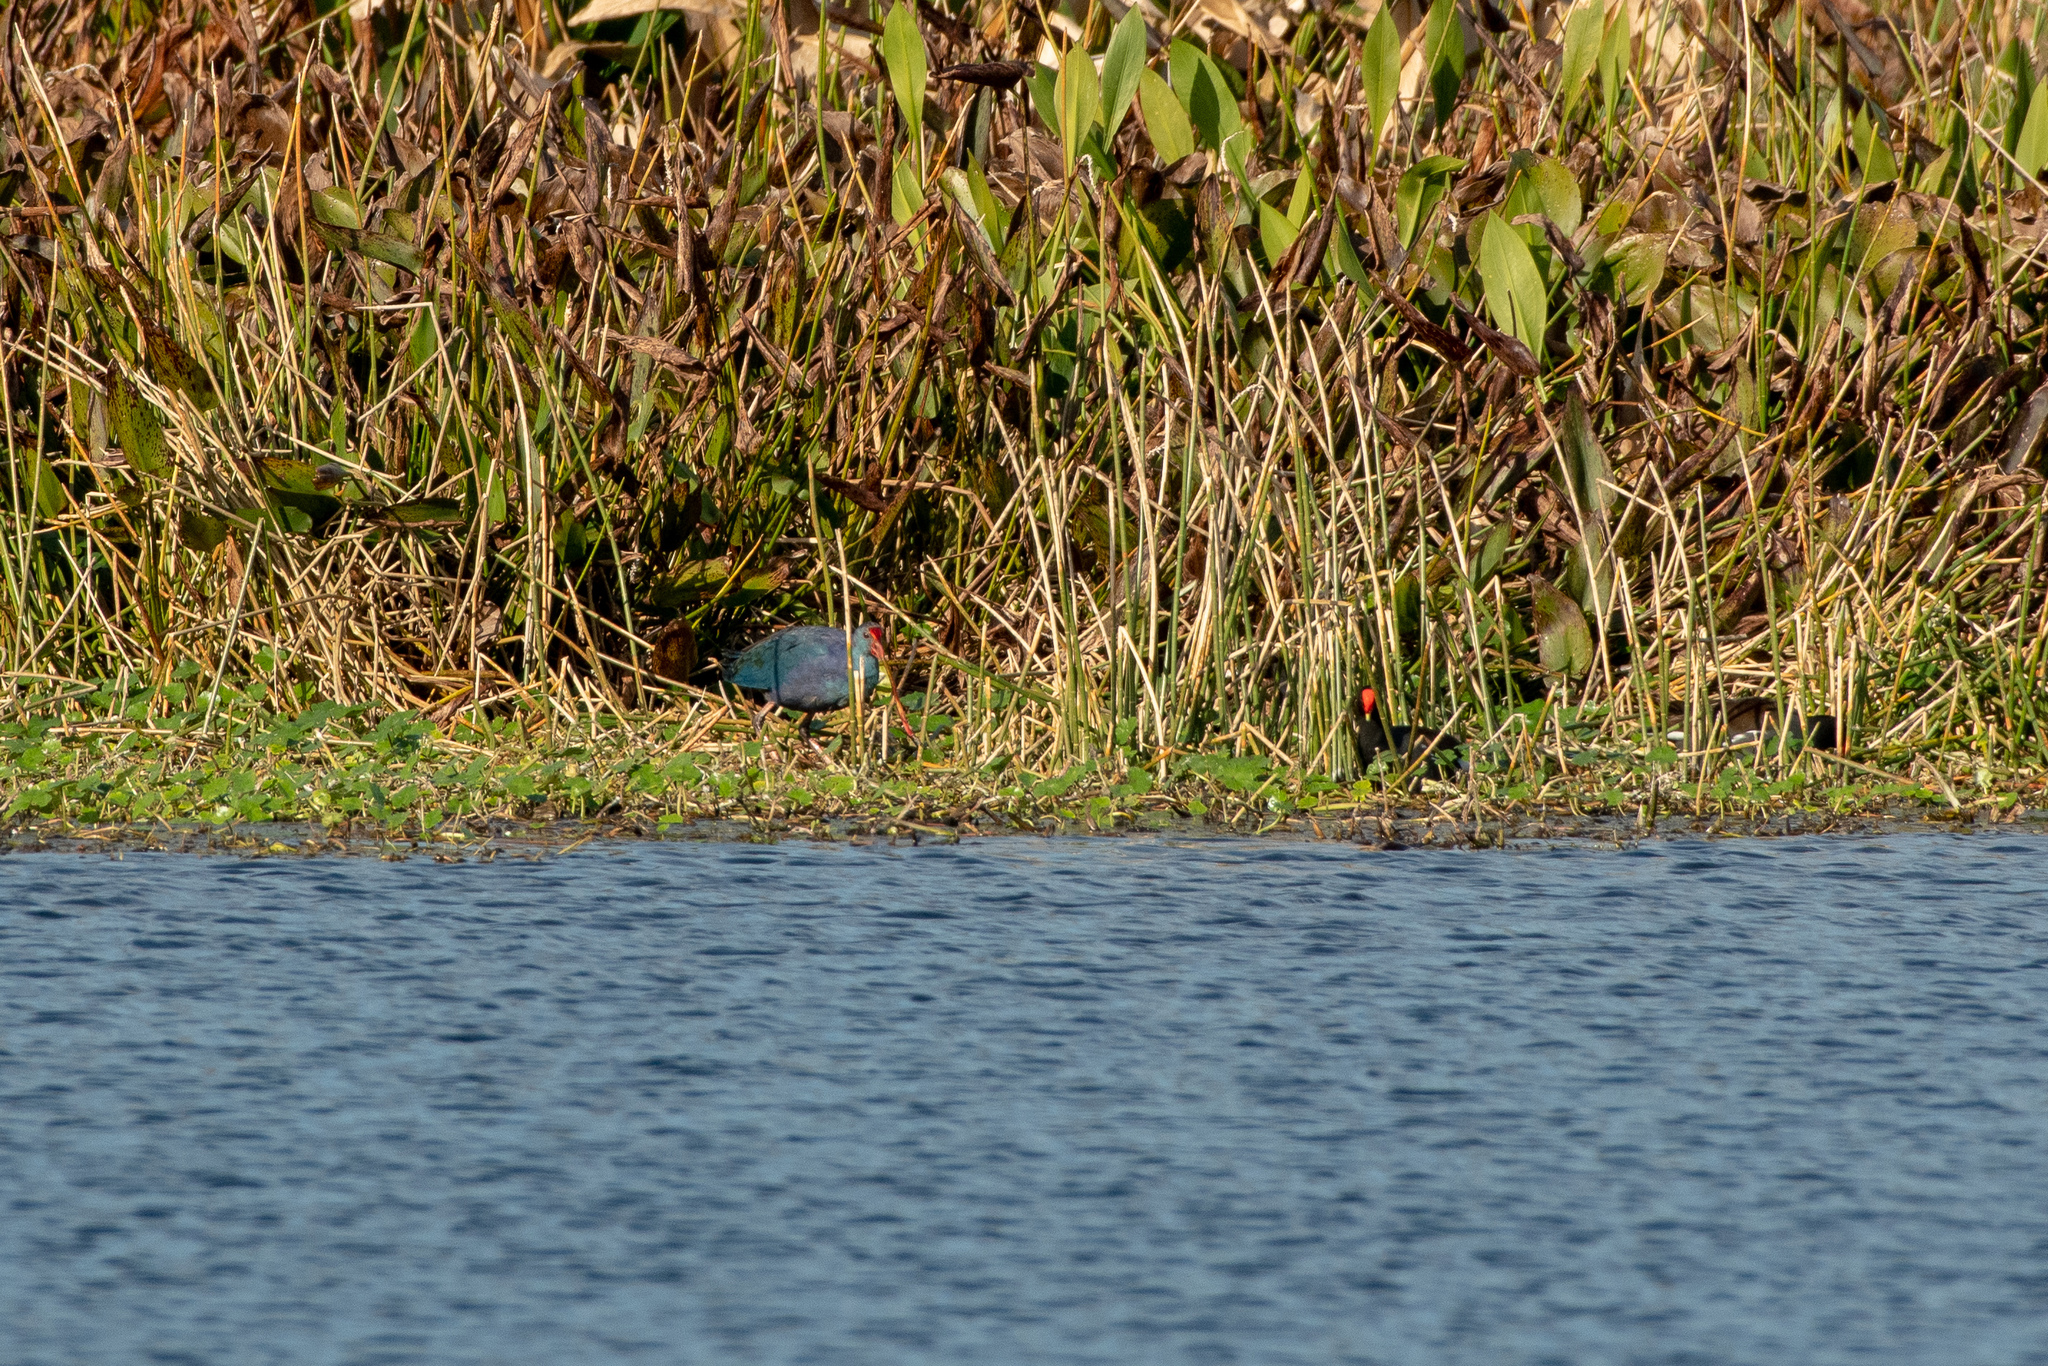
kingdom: Animalia
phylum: Chordata
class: Aves
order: Gruiformes
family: Rallidae
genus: Porphyrio
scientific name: Porphyrio porphyrio
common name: Purple swamphen
